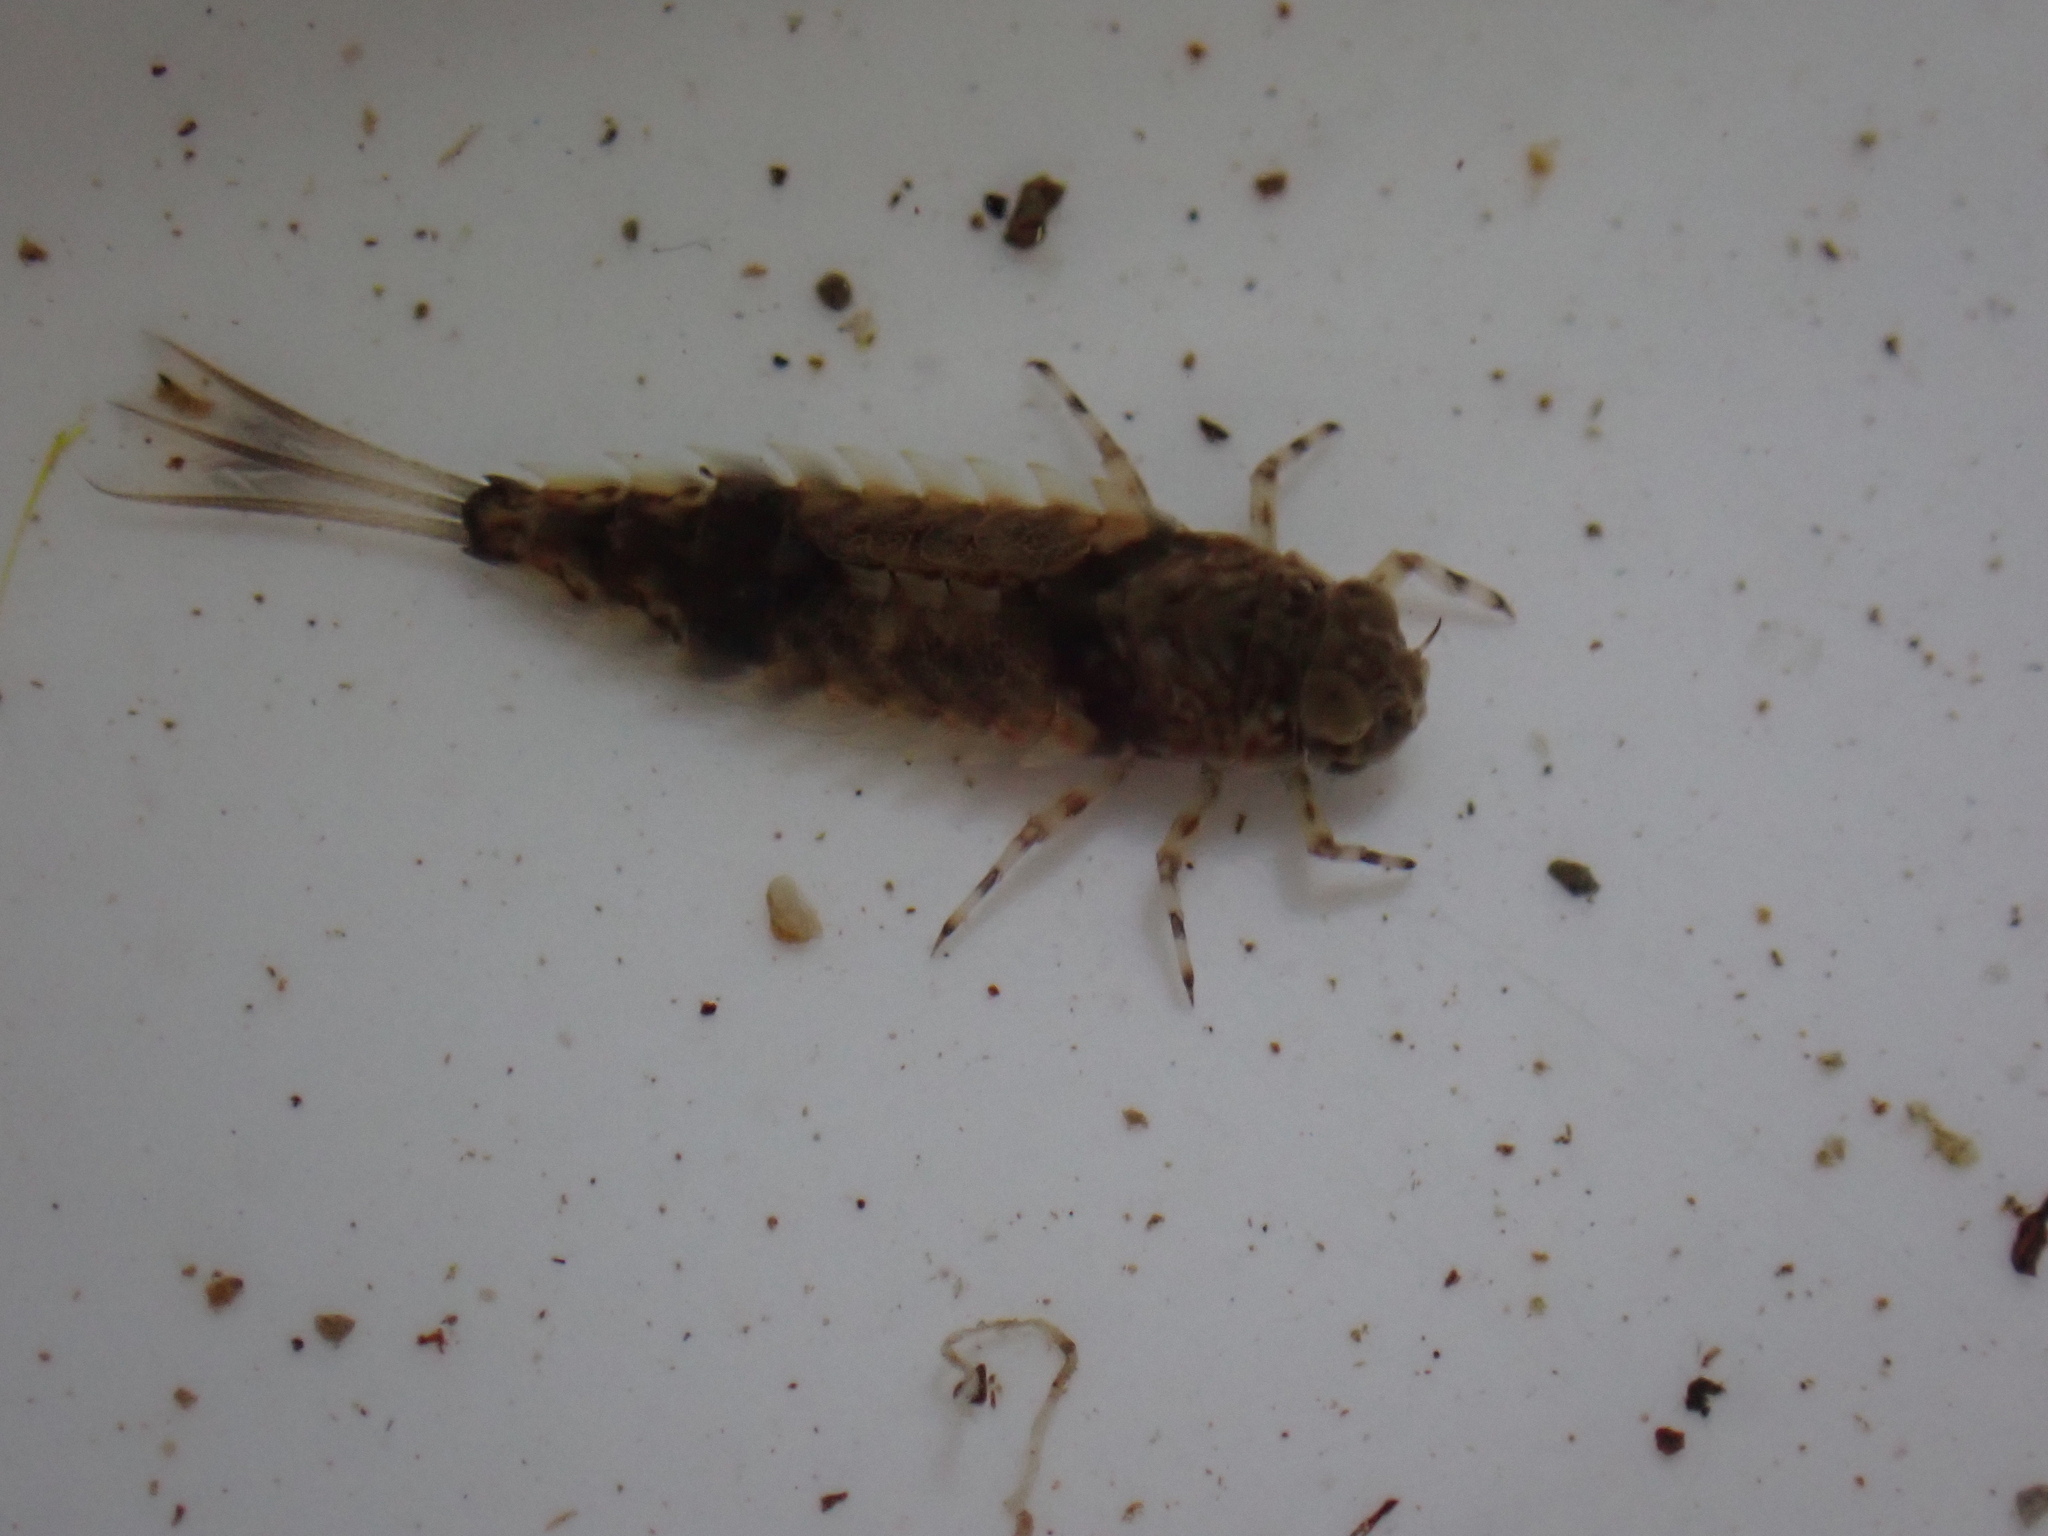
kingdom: Animalia
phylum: Arthropoda
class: Insecta
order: Ephemeroptera
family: Oniscigastridae
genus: Oniscigaster
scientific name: Oniscigaster distans
